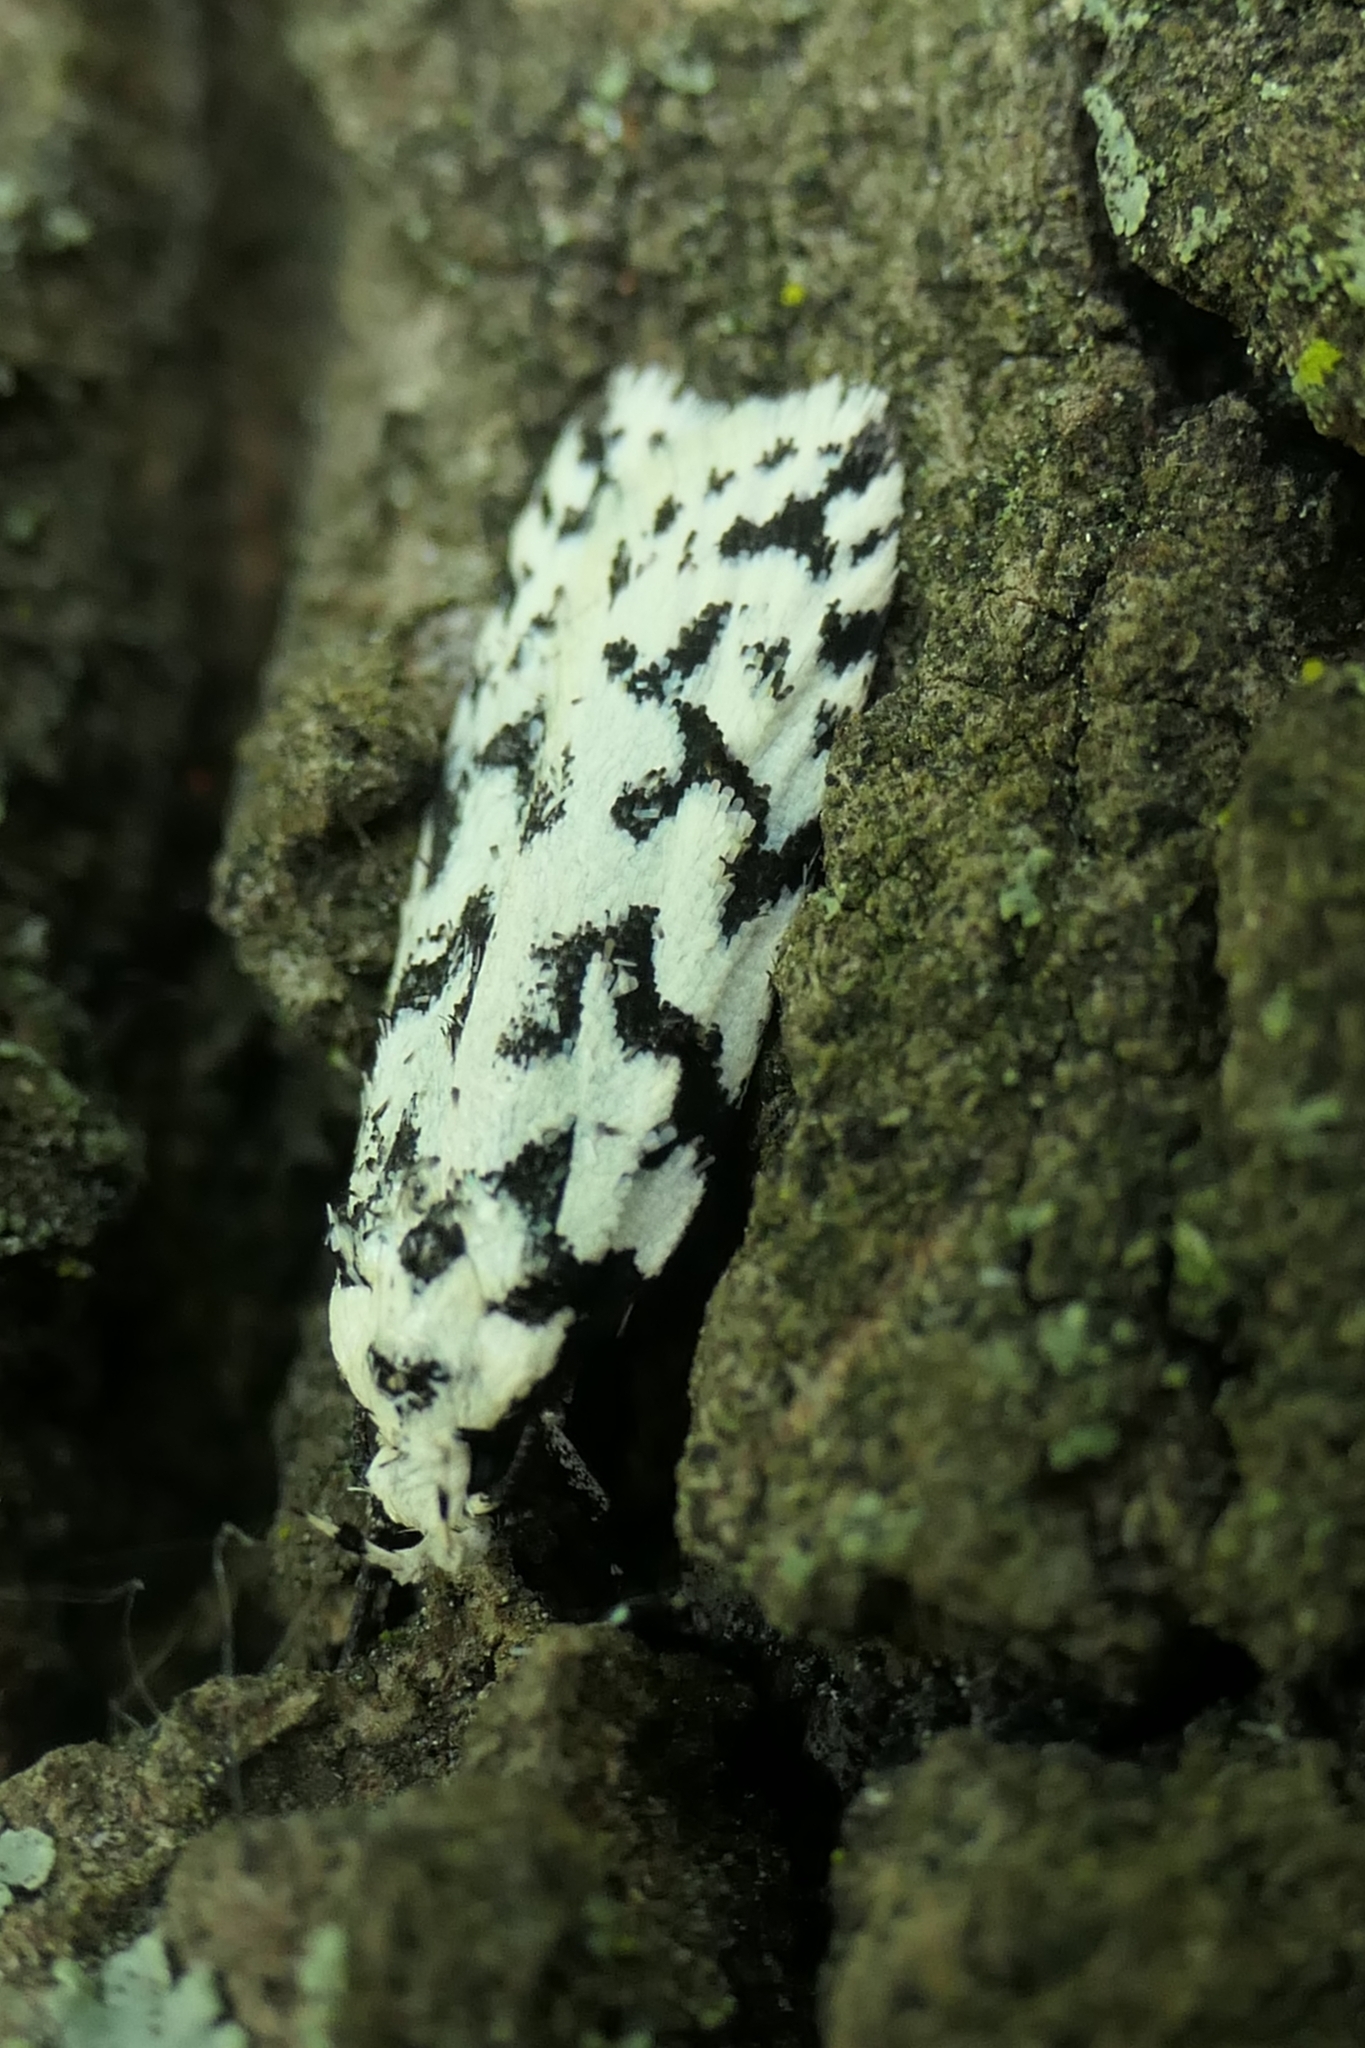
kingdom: Animalia
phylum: Arthropoda
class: Insecta
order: Lepidoptera
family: Oecophoridae
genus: Izatha
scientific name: Izatha katadiktya
